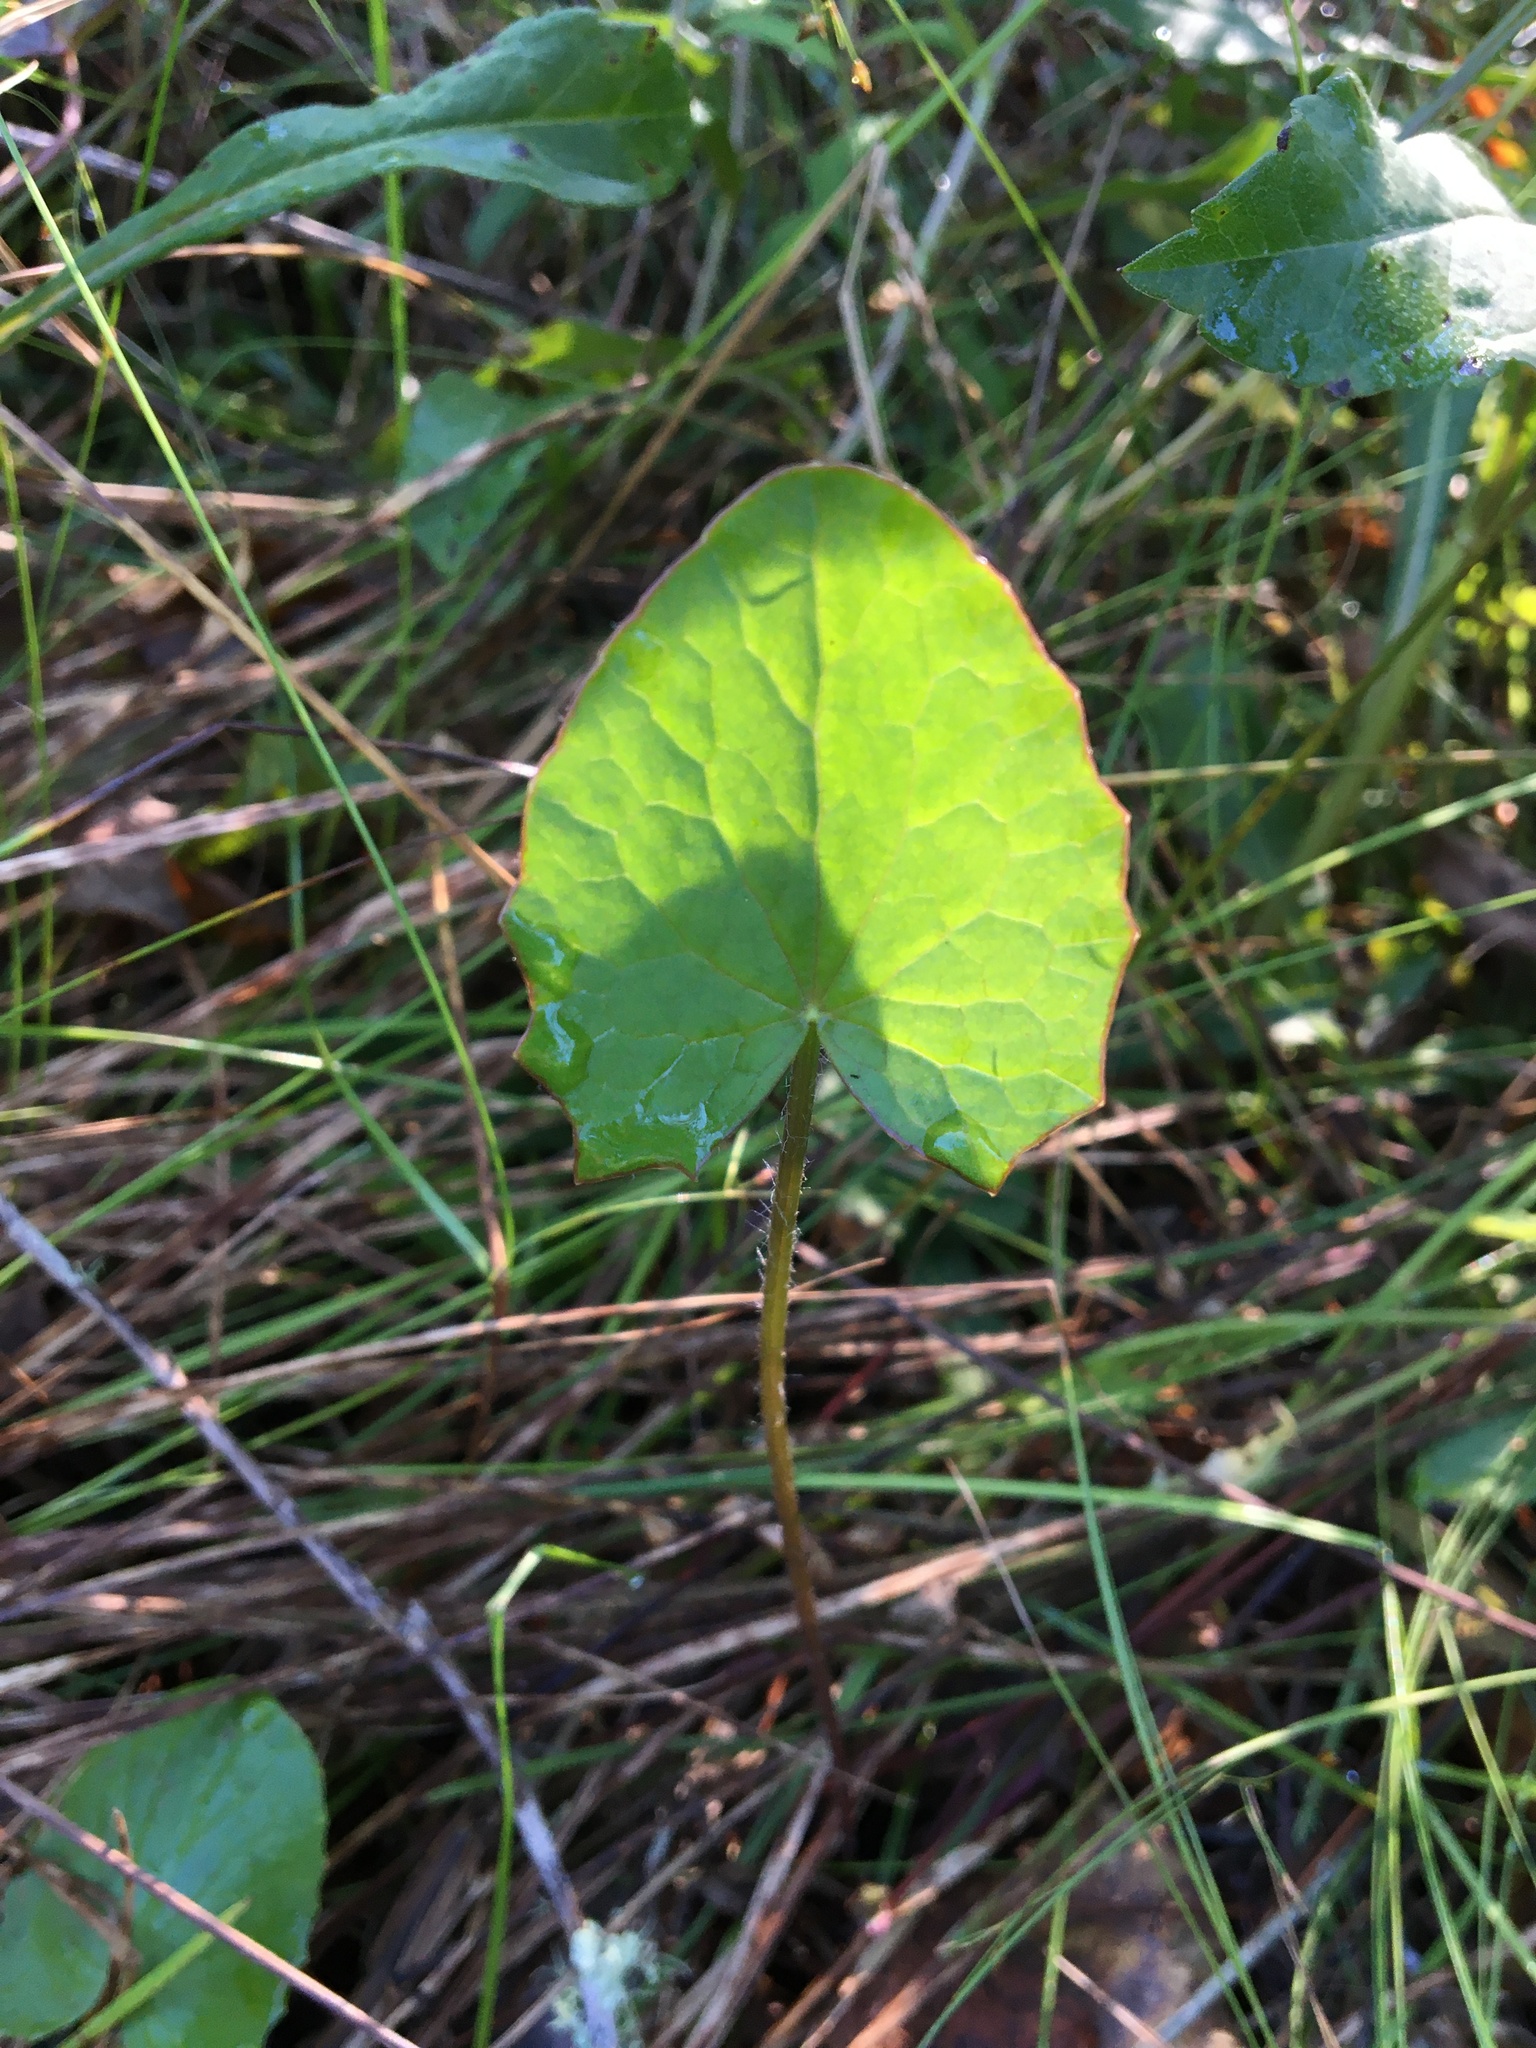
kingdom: Plantae
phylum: Tracheophyta
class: Magnoliopsida
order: Apiales
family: Apiaceae
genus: Centella
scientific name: Centella erecta
